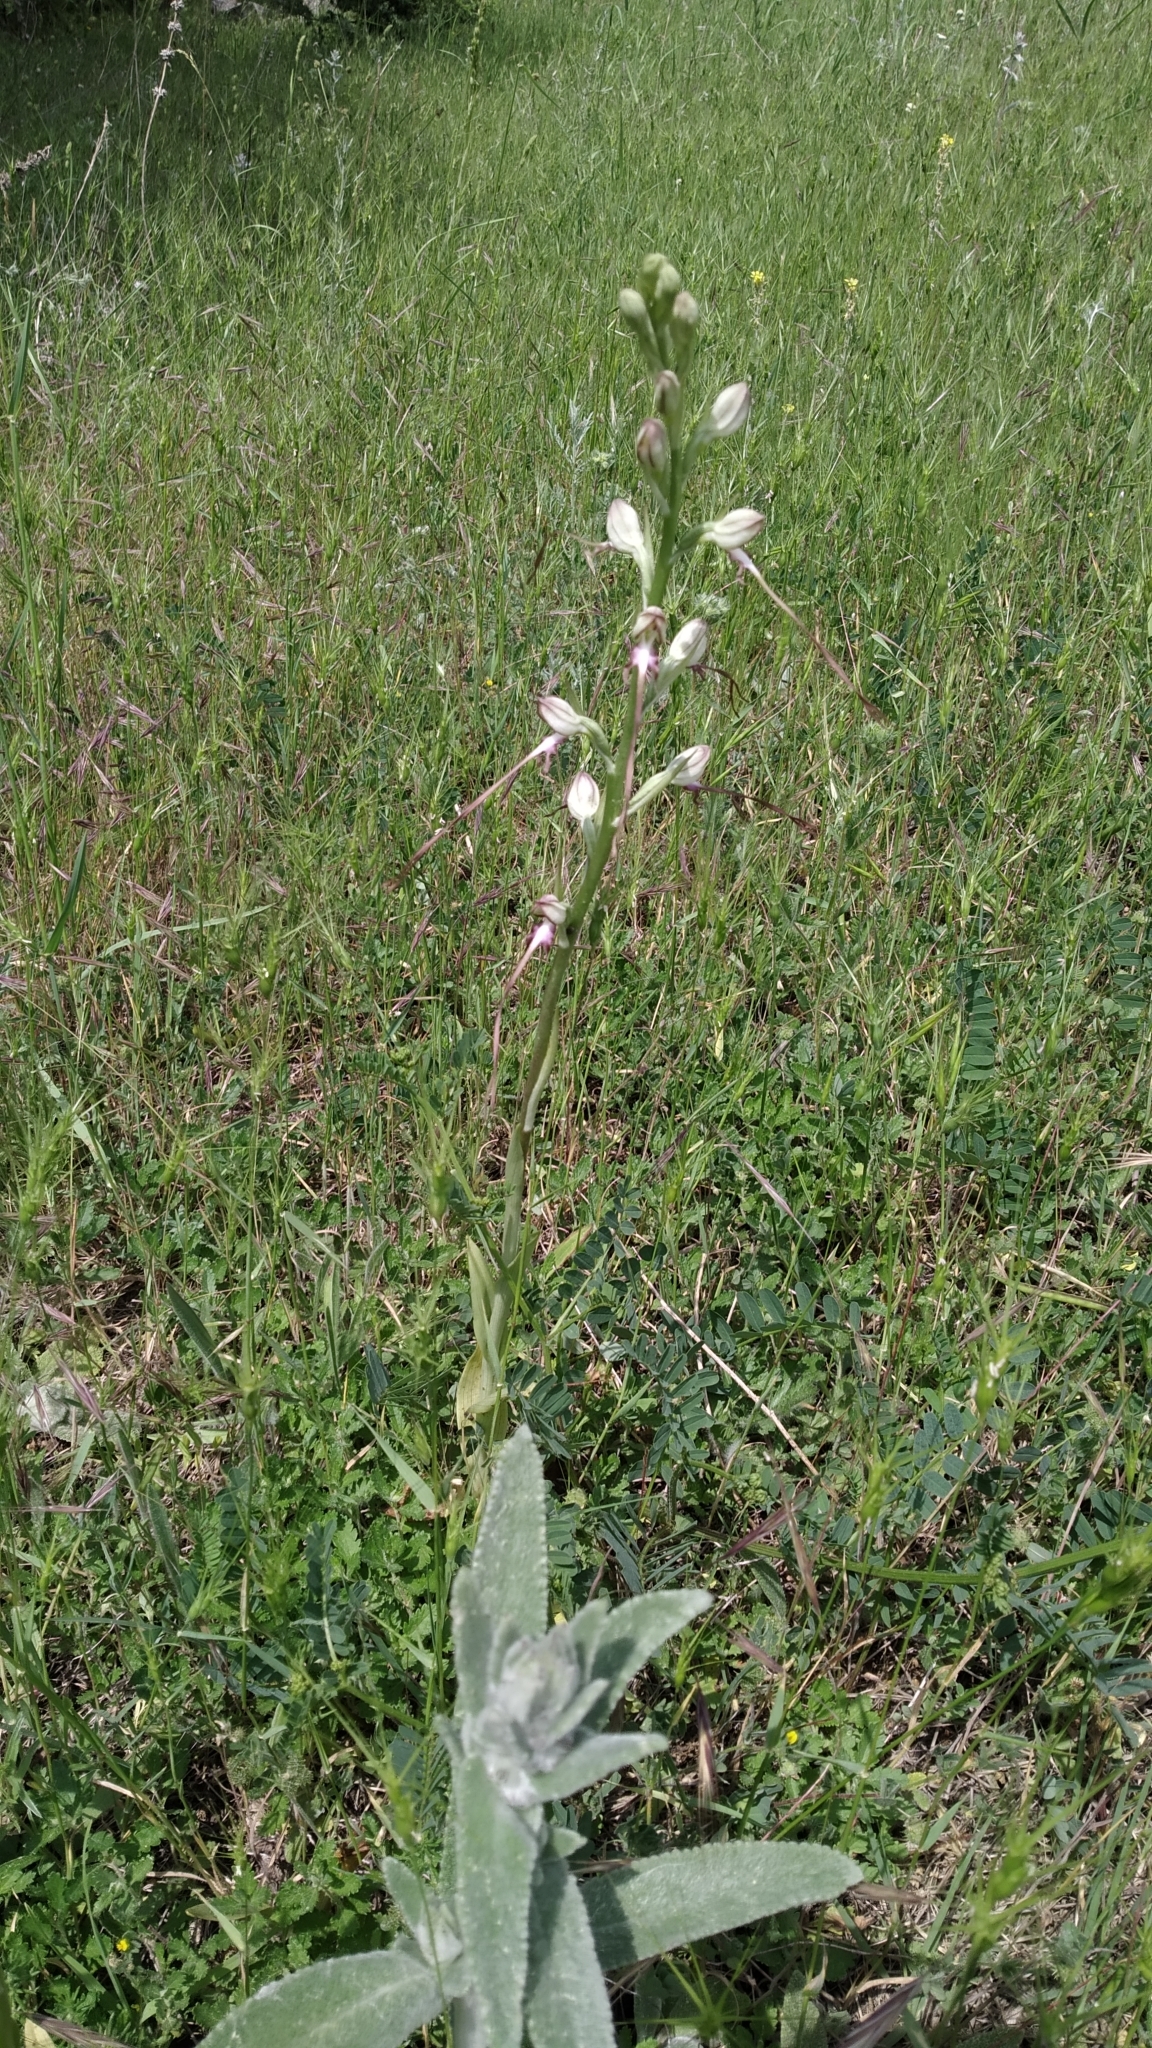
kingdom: Plantae
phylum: Tracheophyta
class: Liliopsida
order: Asparagales
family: Orchidaceae
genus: Himantoglossum
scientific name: Himantoglossum caprinum
